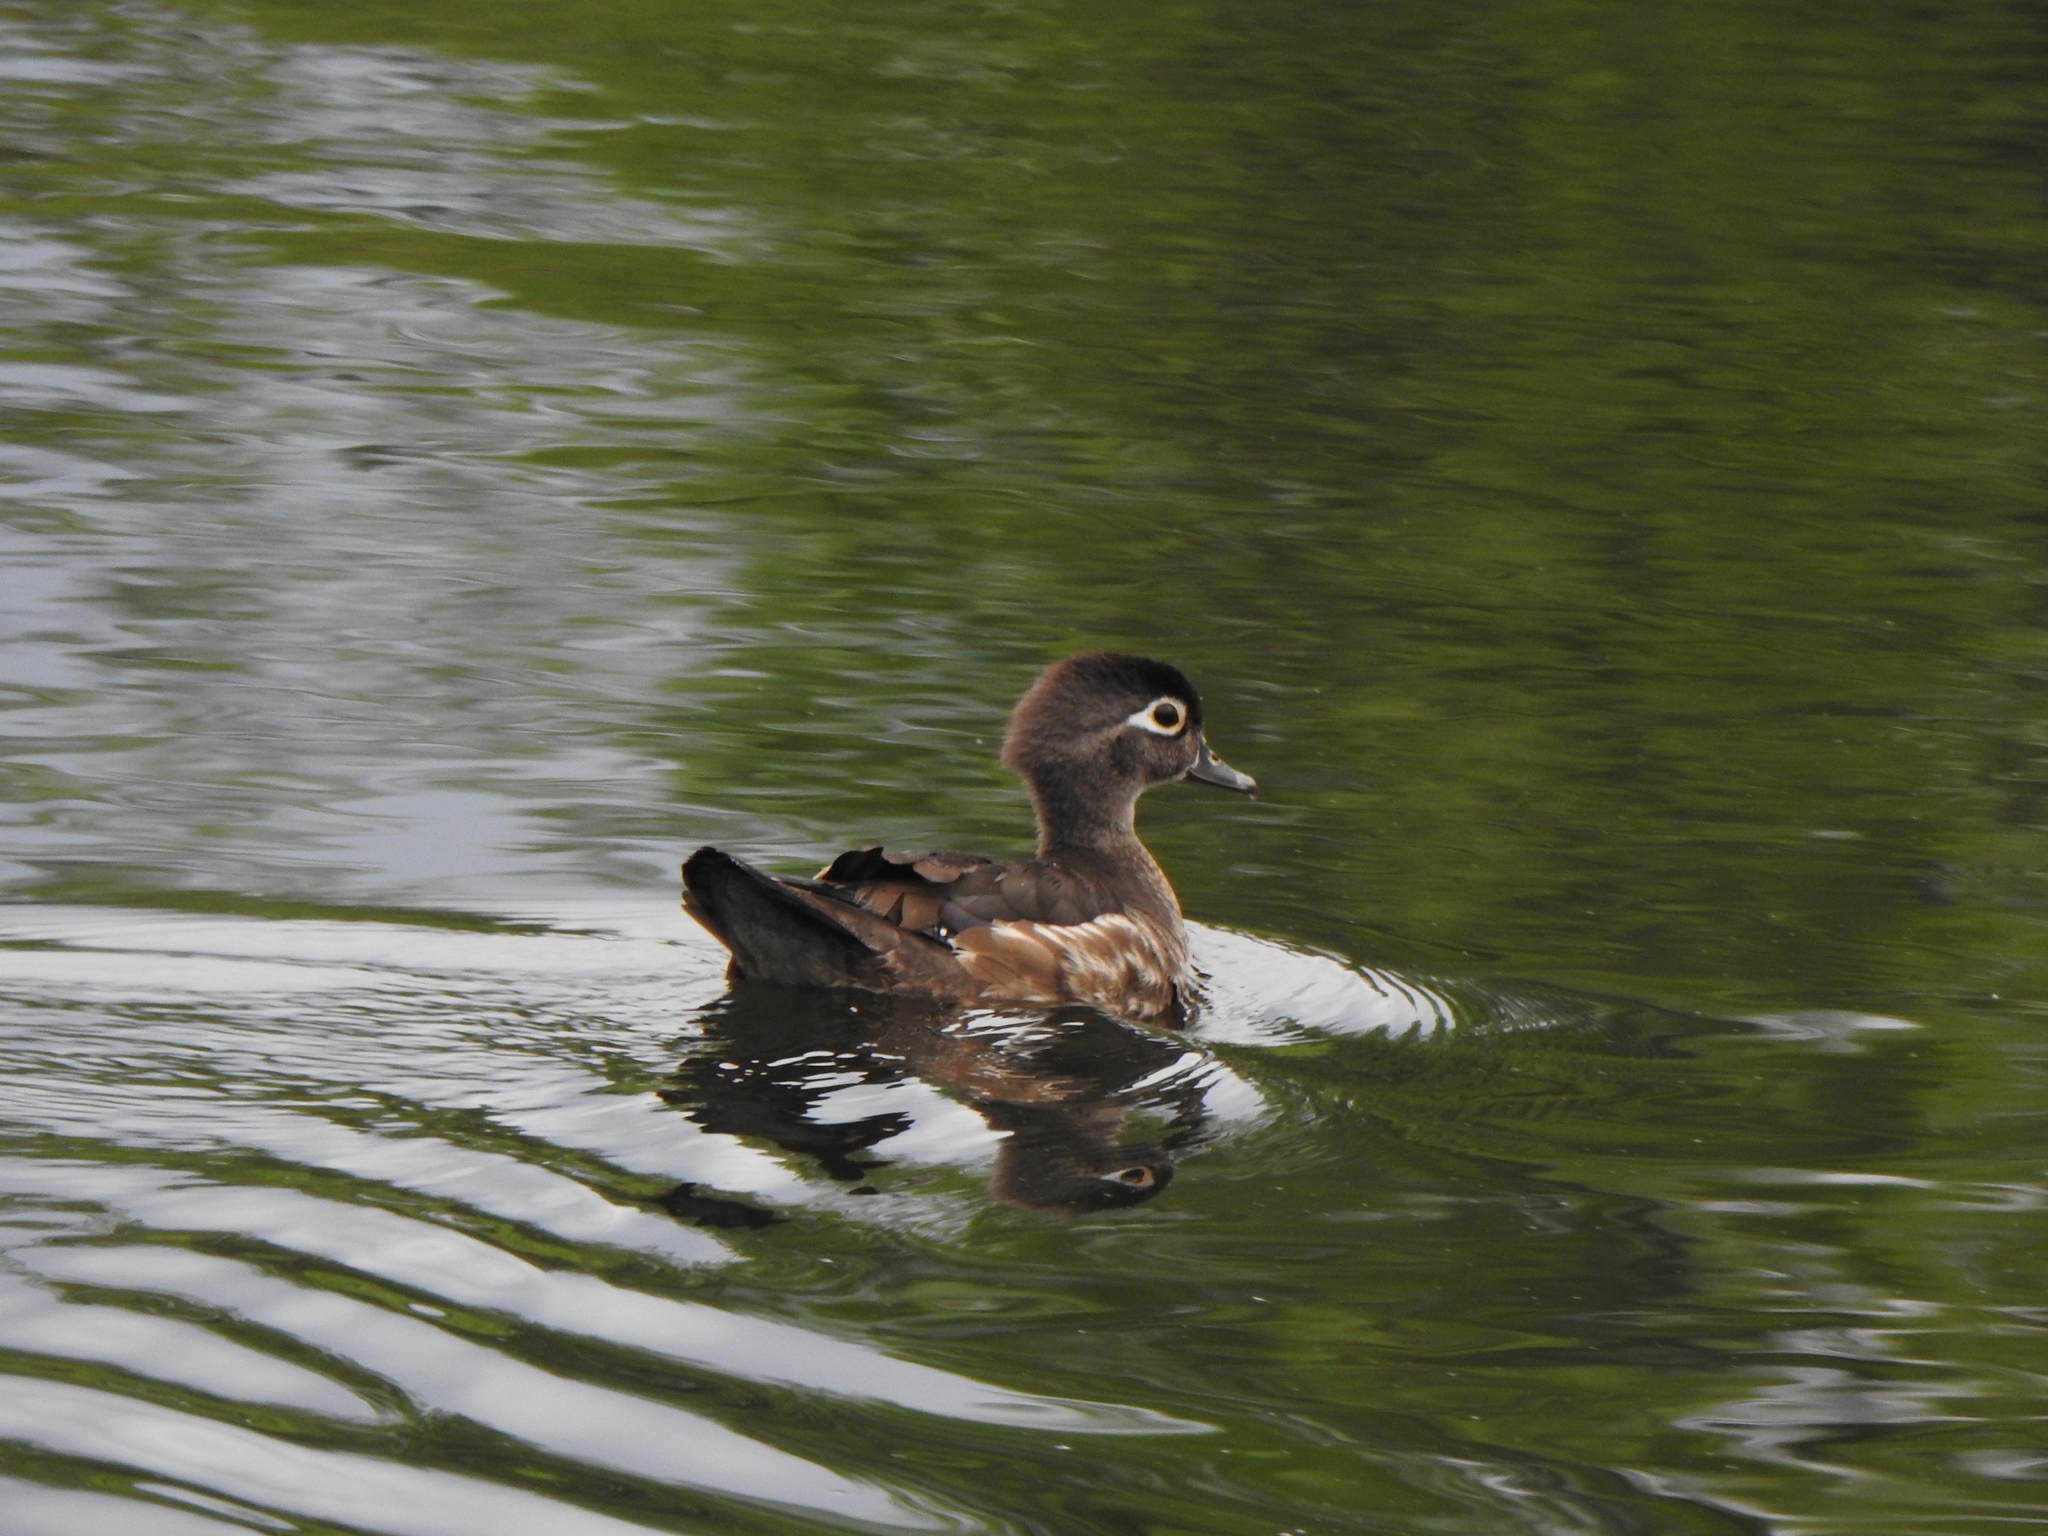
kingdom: Animalia
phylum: Chordata
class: Aves
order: Anseriformes
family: Anatidae
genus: Aix
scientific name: Aix sponsa
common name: Wood duck
